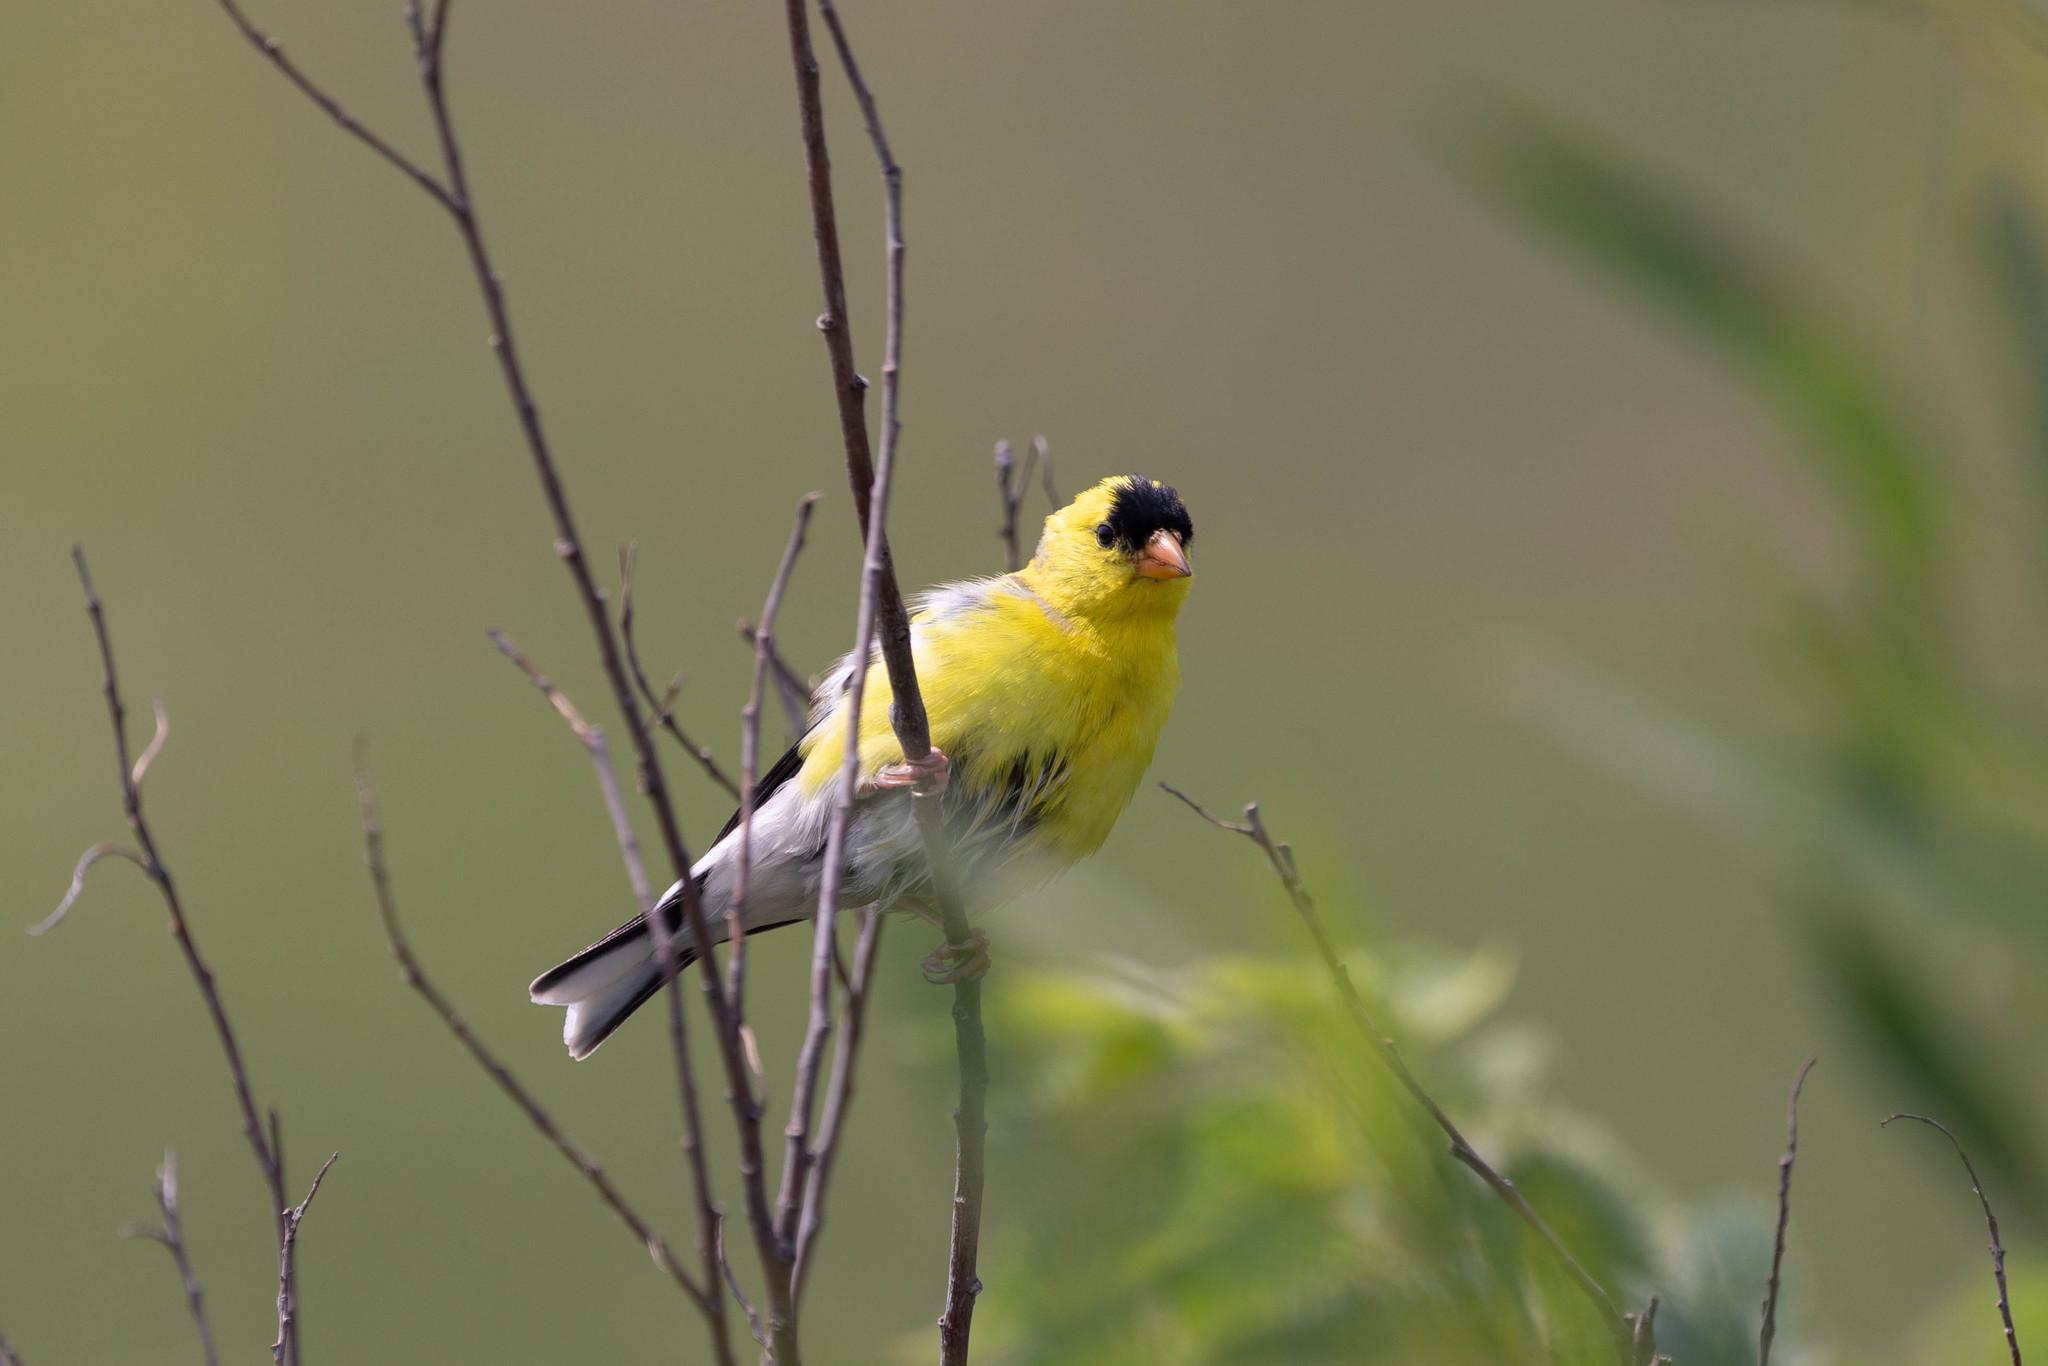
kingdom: Animalia
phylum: Chordata
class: Aves
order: Passeriformes
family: Fringillidae
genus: Spinus
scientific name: Spinus tristis
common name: American goldfinch
